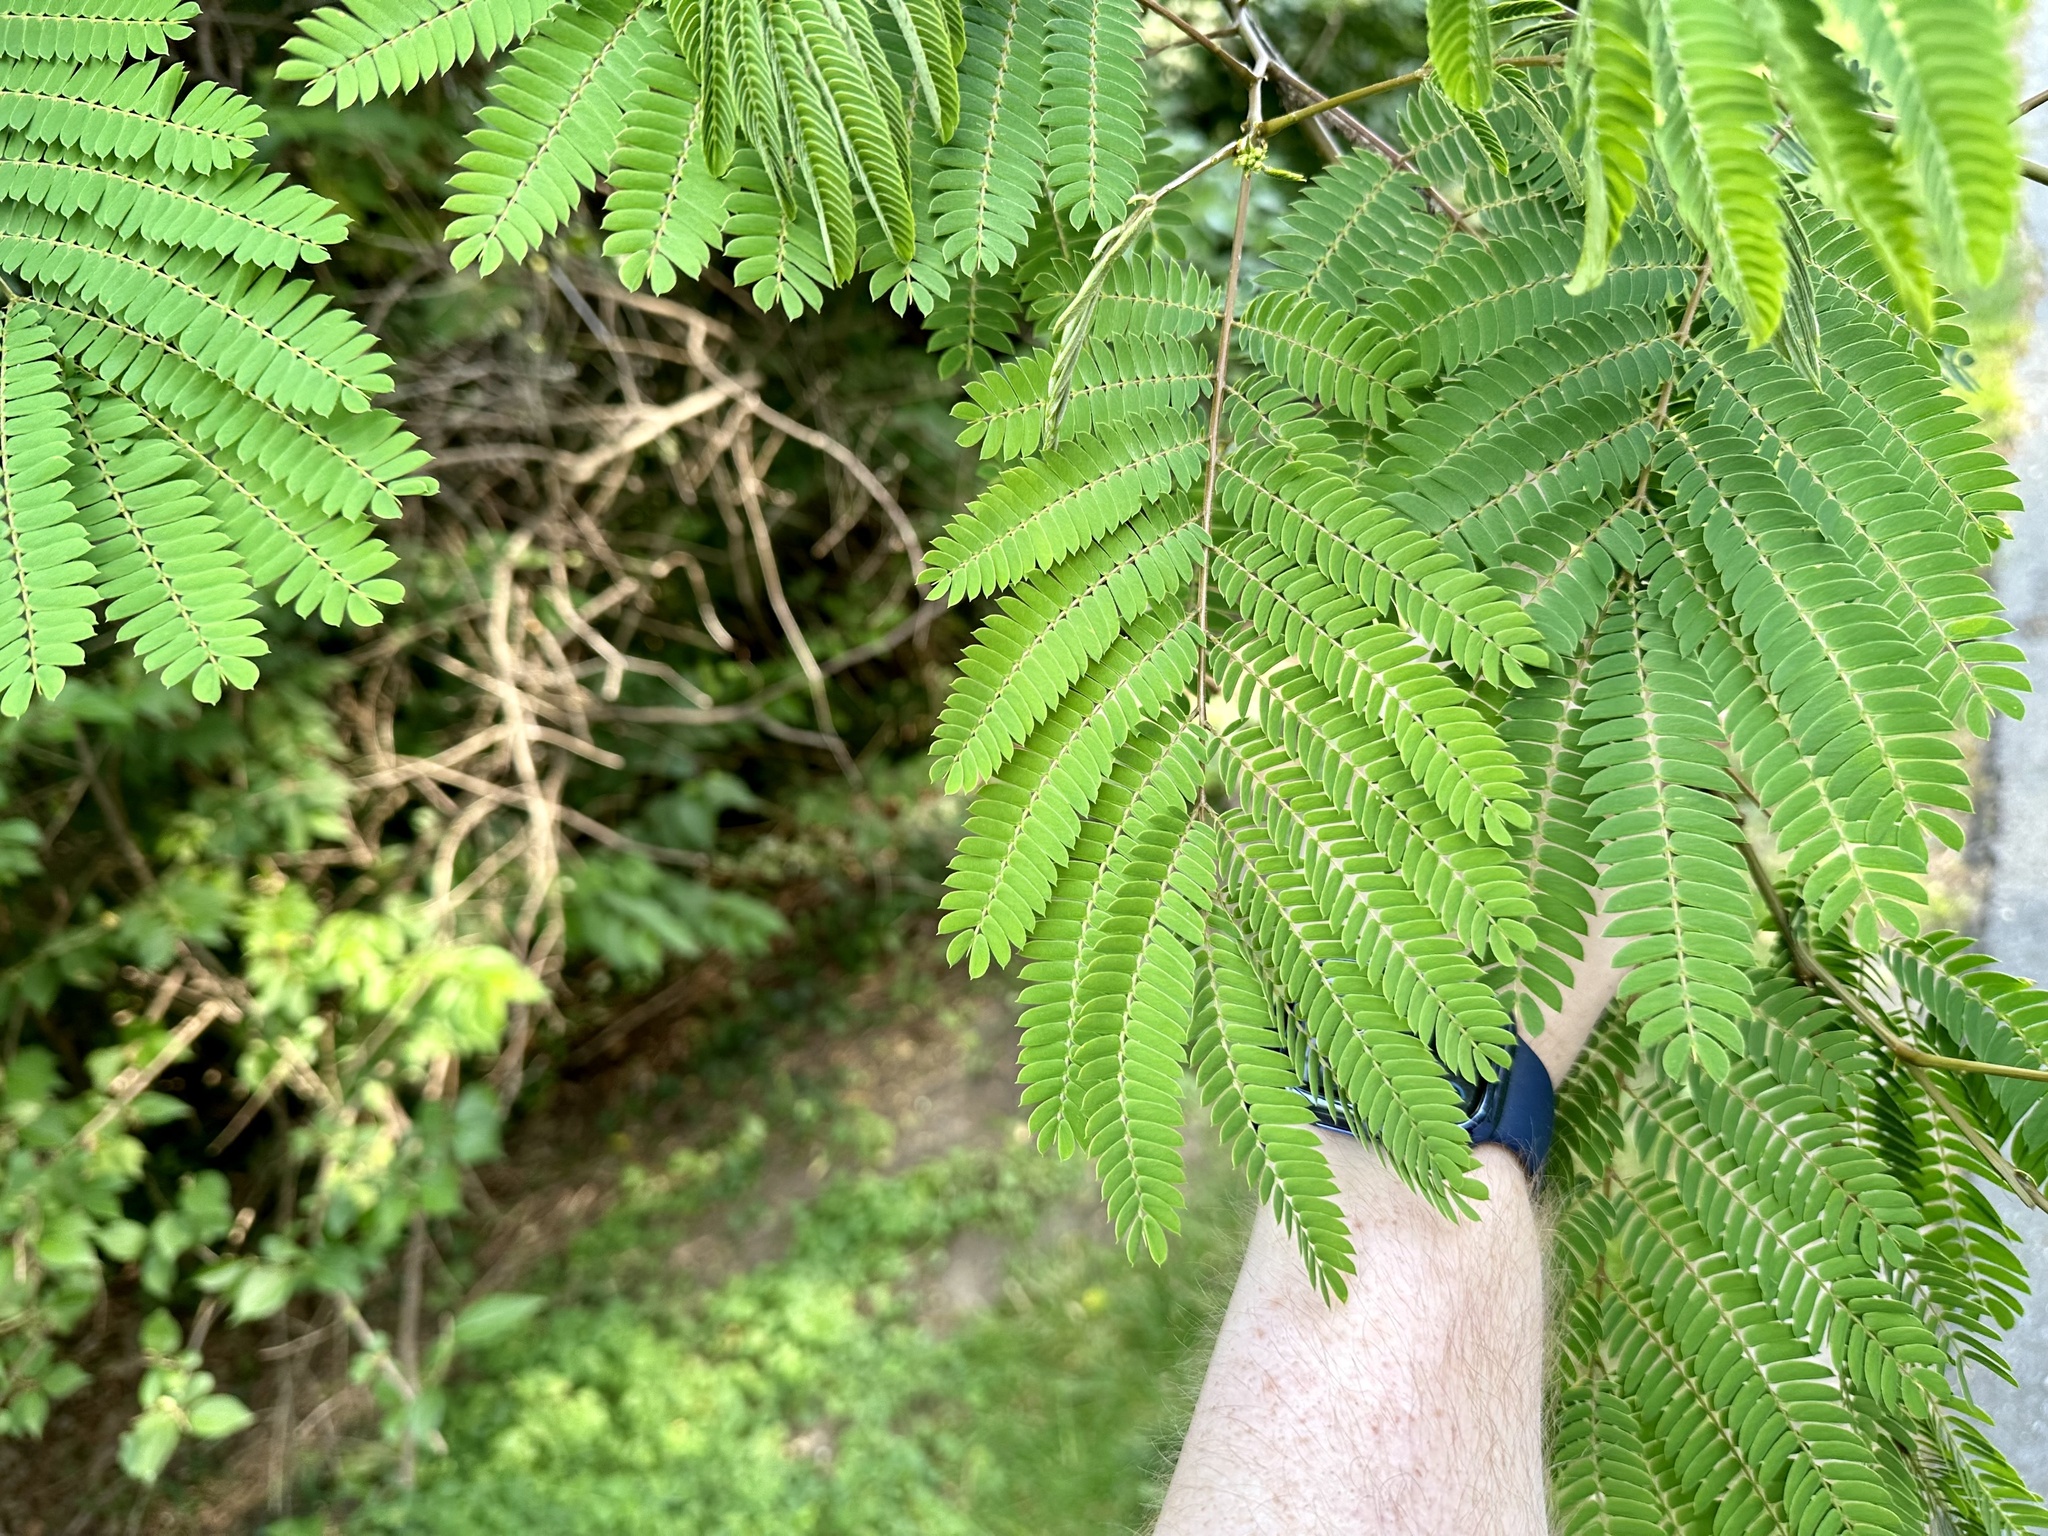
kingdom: Plantae
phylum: Tracheophyta
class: Magnoliopsida
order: Fabales
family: Fabaceae
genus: Albizia
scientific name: Albizia julibrissin
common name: Silktree
